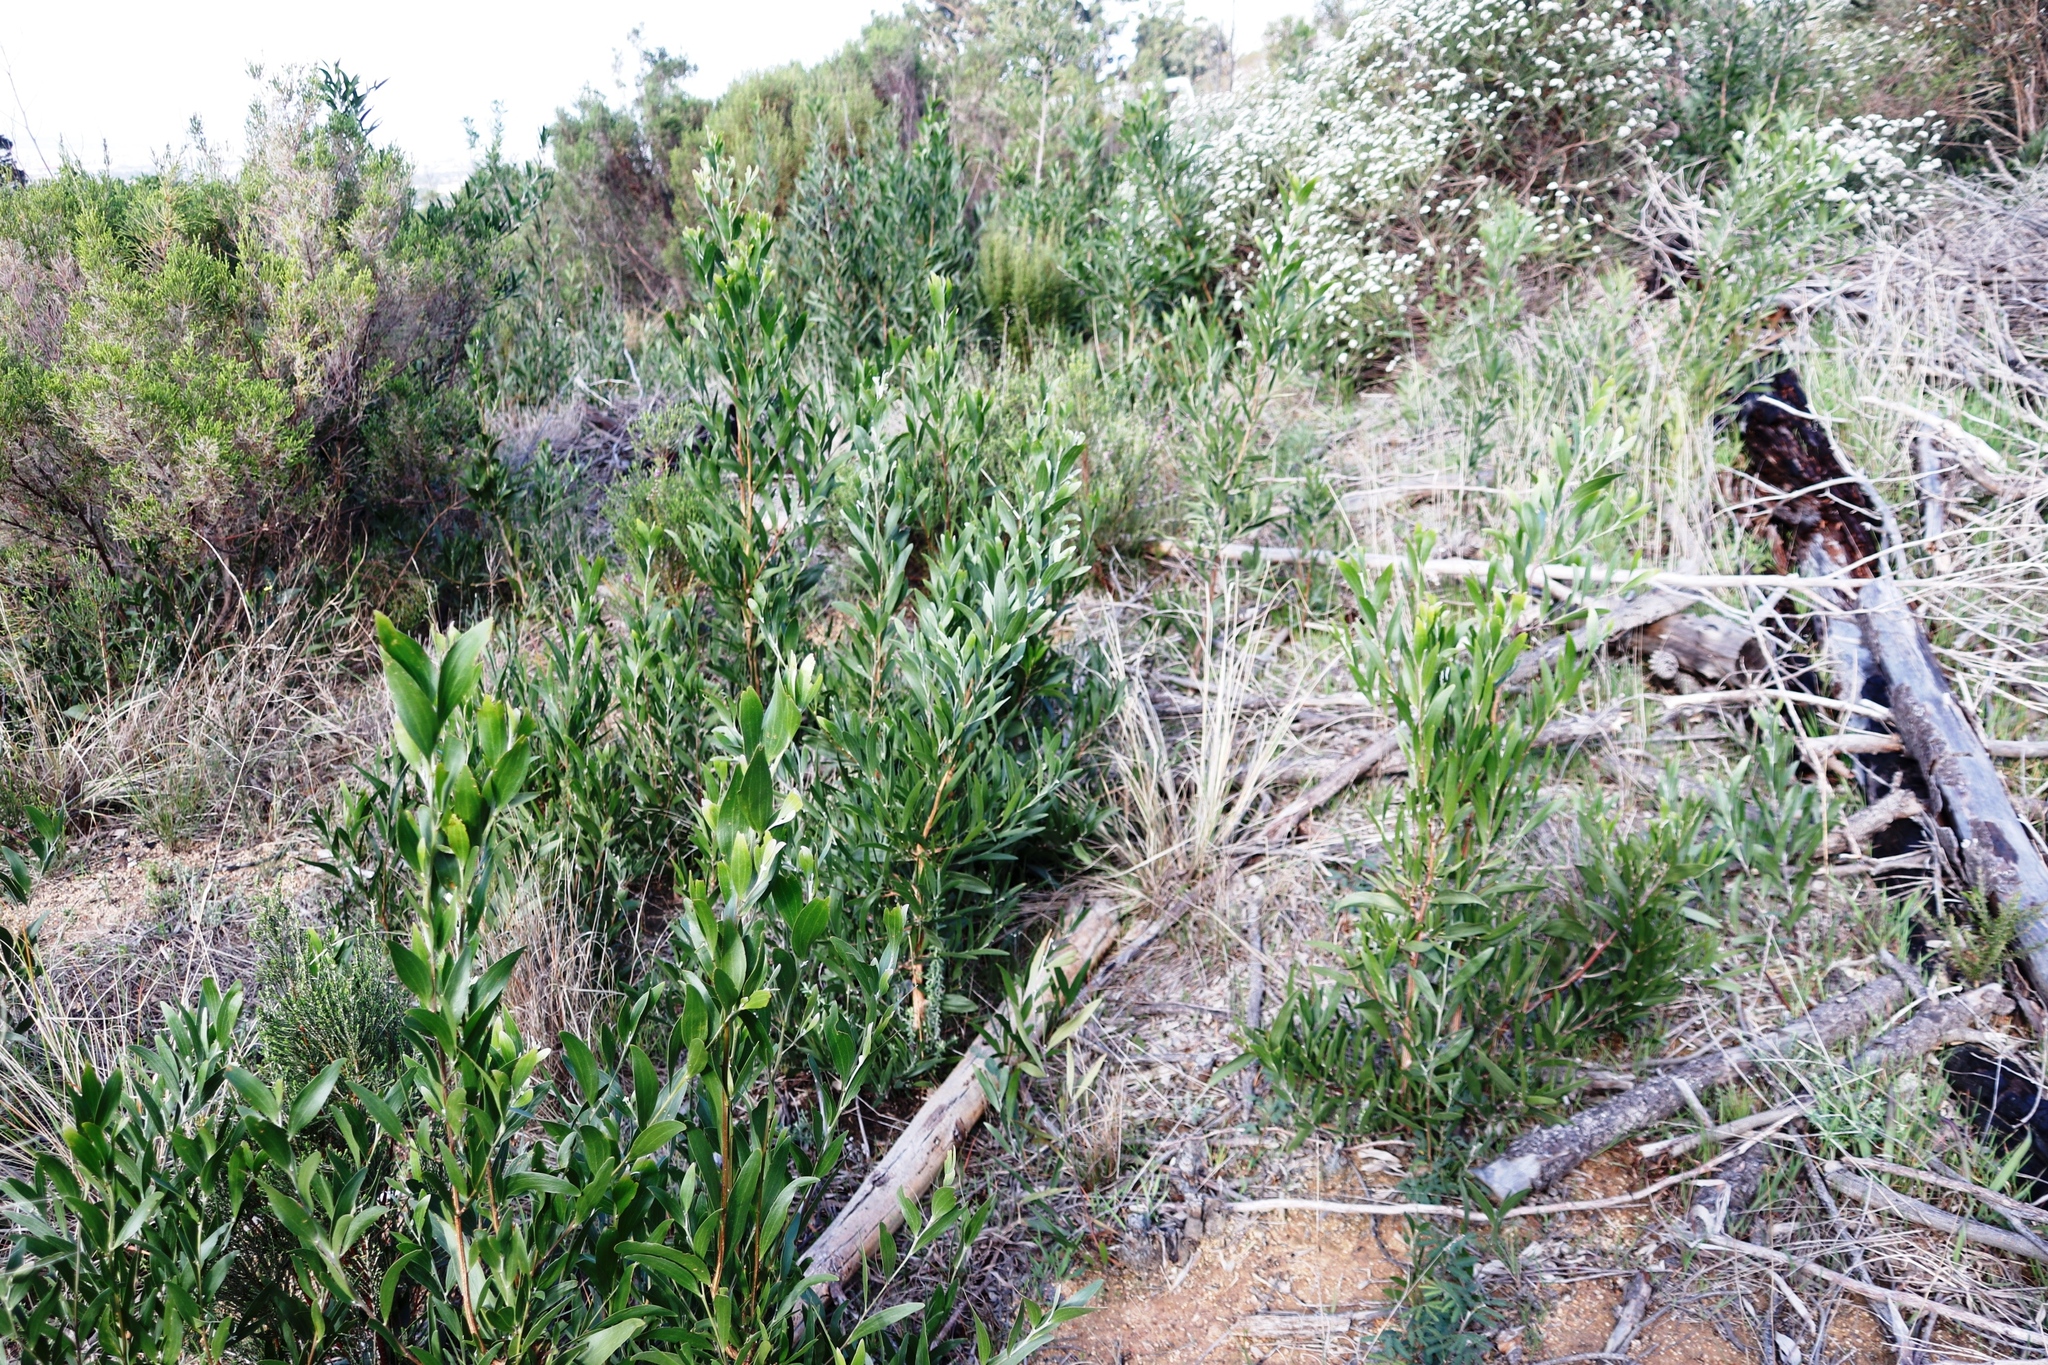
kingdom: Plantae
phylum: Tracheophyta
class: Magnoliopsida
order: Fabales
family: Fabaceae
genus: Acacia
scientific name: Acacia melanoxylon
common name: Blackwood
